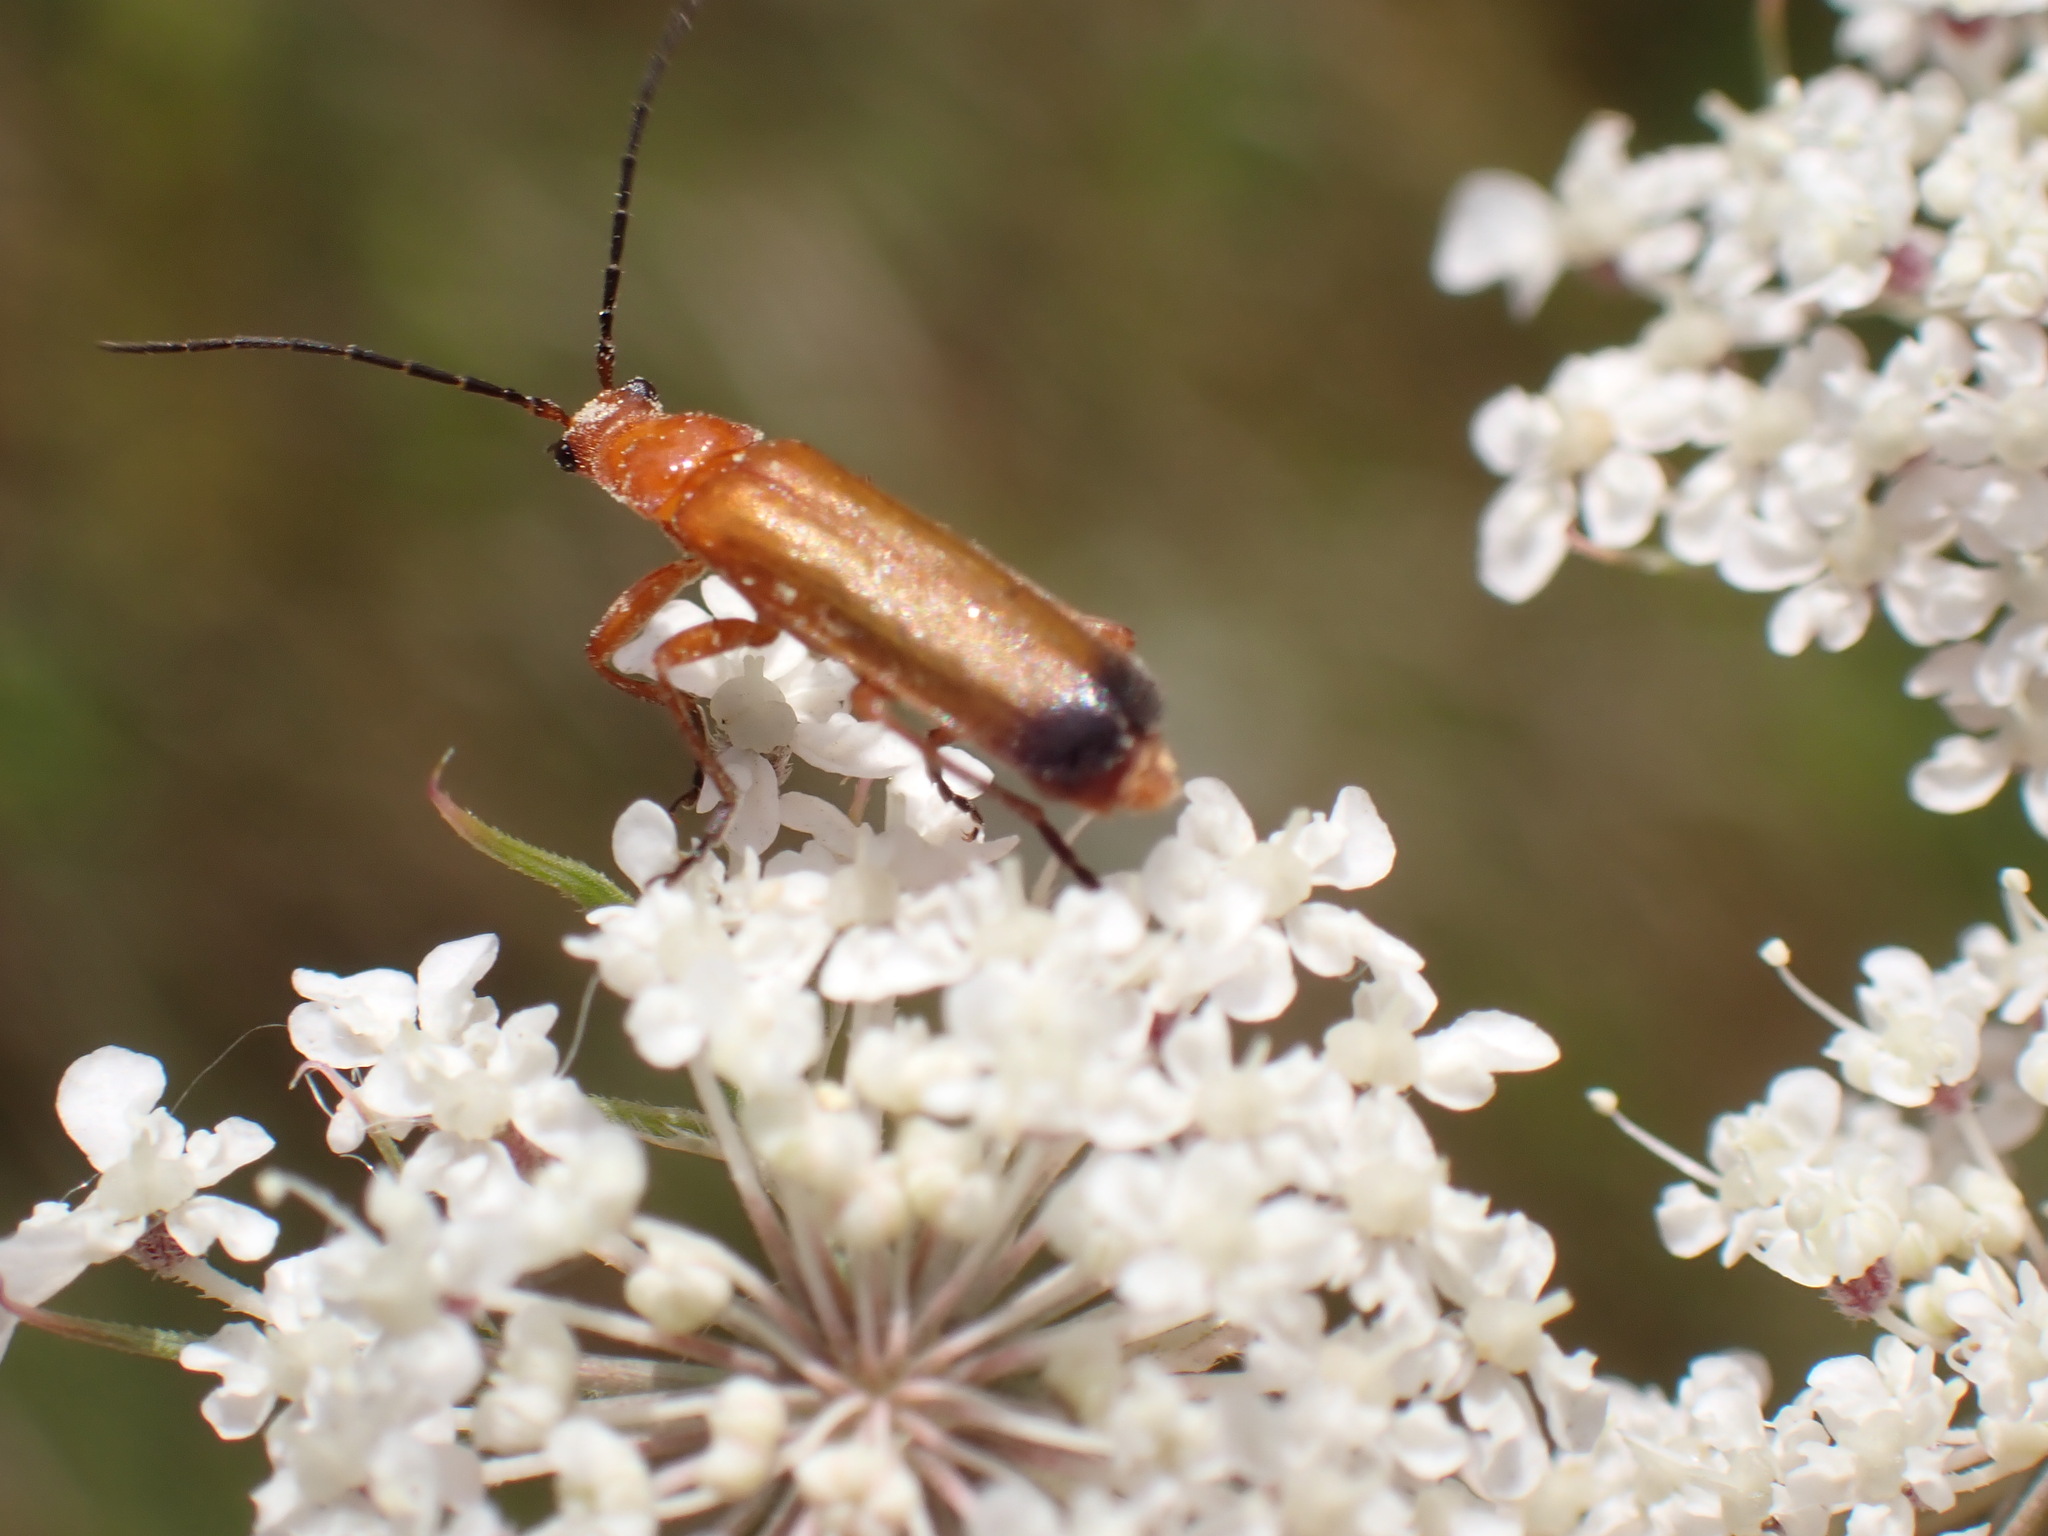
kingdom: Animalia
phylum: Arthropoda
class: Insecta
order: Coleoptera
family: Cantharidae
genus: Rhagonycha
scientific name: Rhagonycha fulva
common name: Common red soldier beetle
